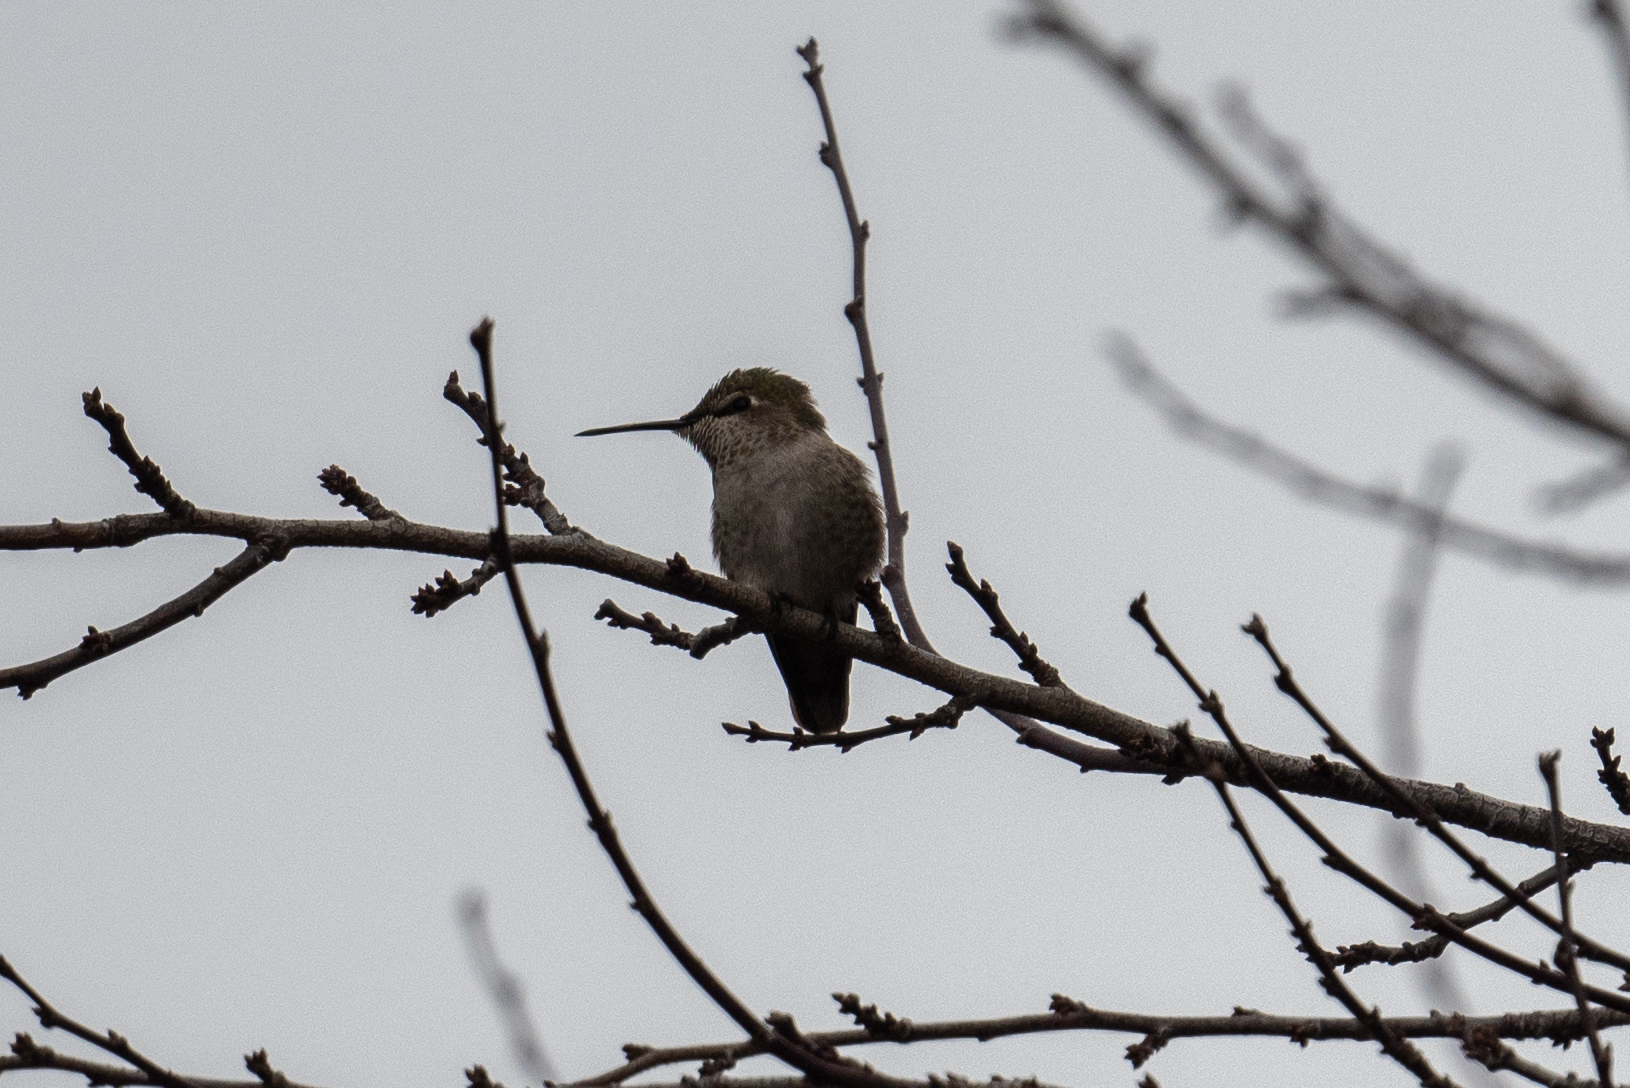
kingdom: Animalia
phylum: Chordata
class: Aves
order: Apodiformes
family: Trochilidae
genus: Calypte
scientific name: Calypte anna
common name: Anna's hummingbird
